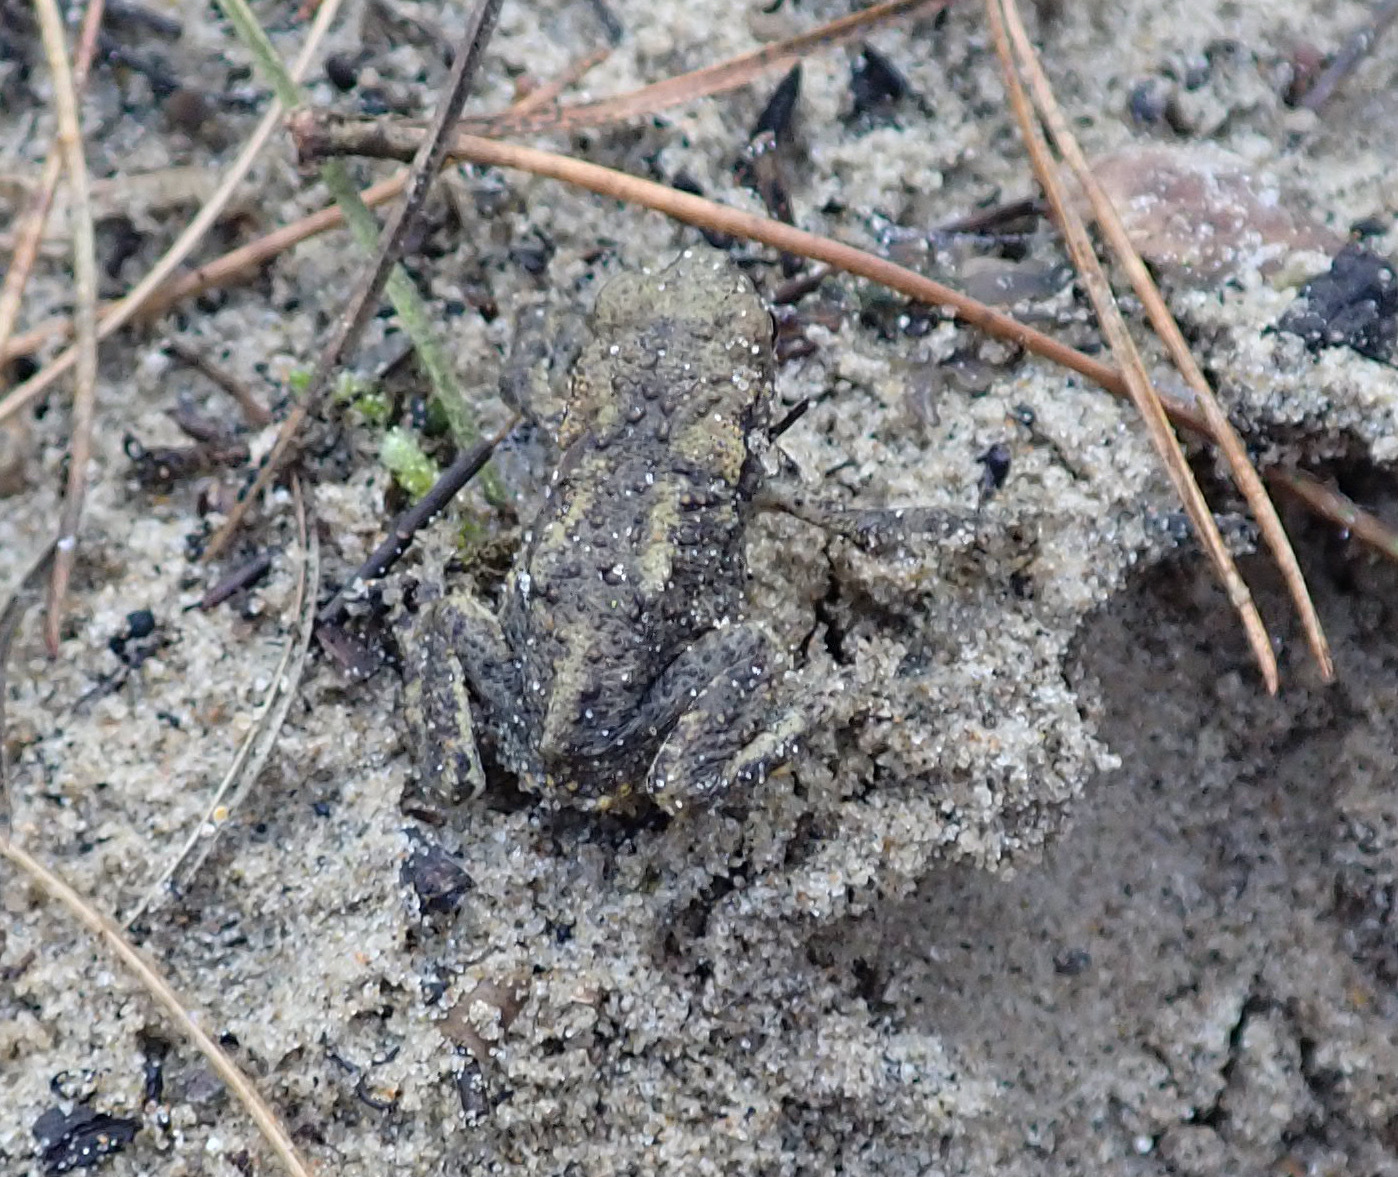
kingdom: Animalia
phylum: Chordata
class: Amphibia
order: Anura
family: Bufonidae
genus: Bufo
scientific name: Bufo bufo
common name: Common toad
